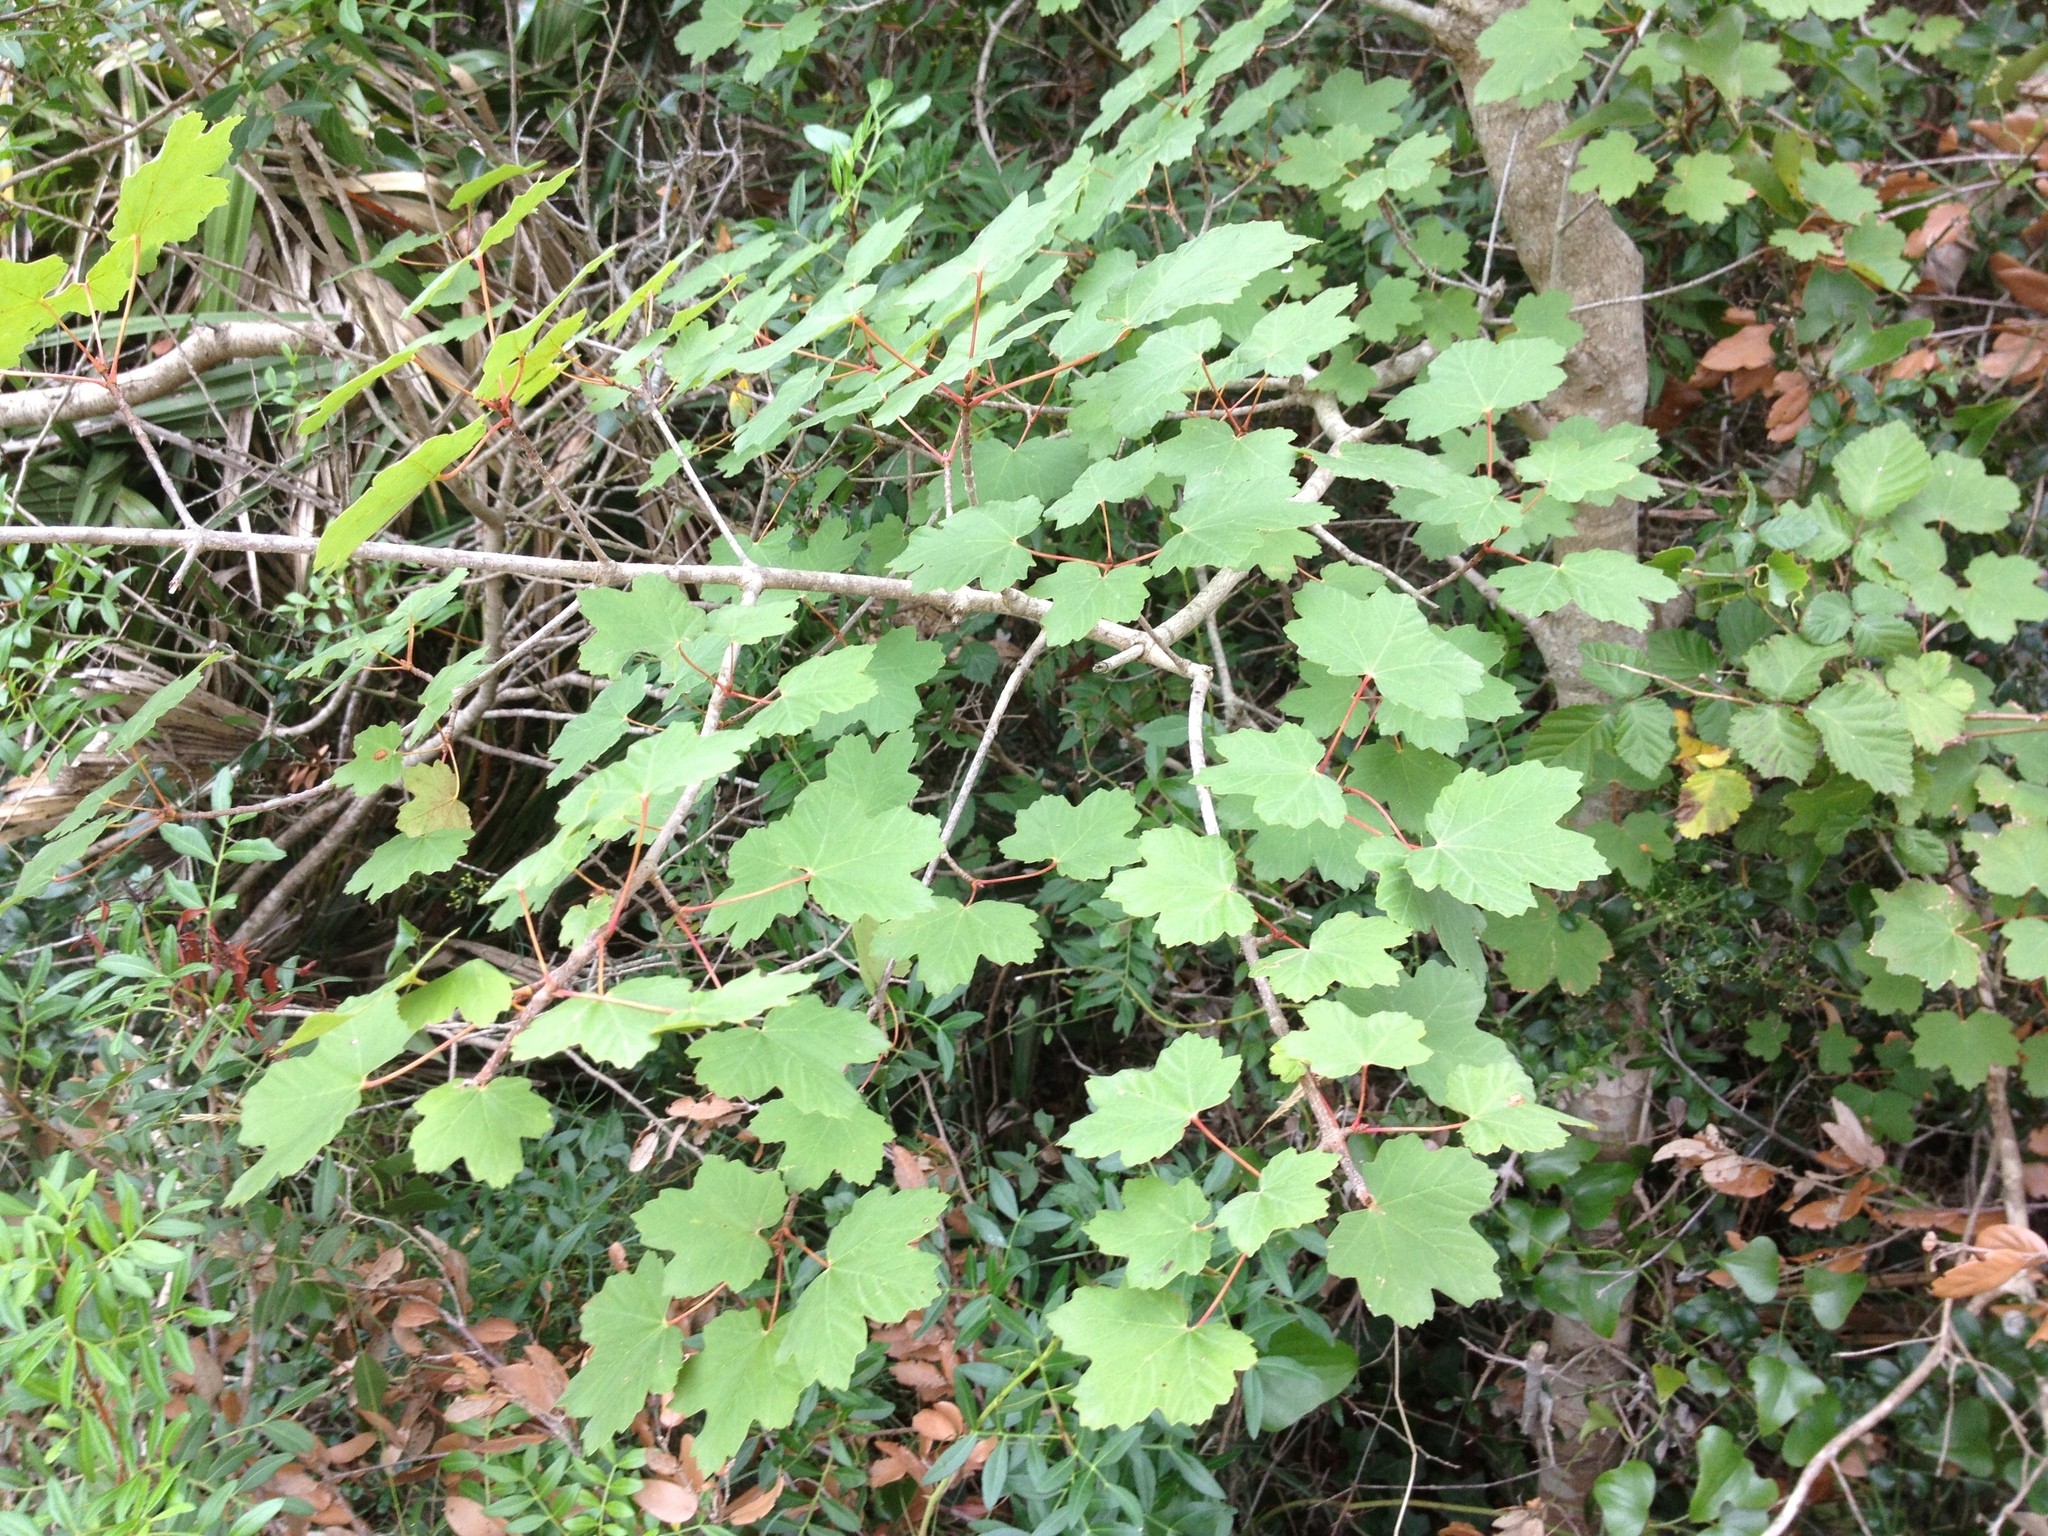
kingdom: Plantae
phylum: Tracheophyta
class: Magnoliopsida
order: Sapindales
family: Sapindaceae
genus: Acer
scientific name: Acer opalus
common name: Italian maple
